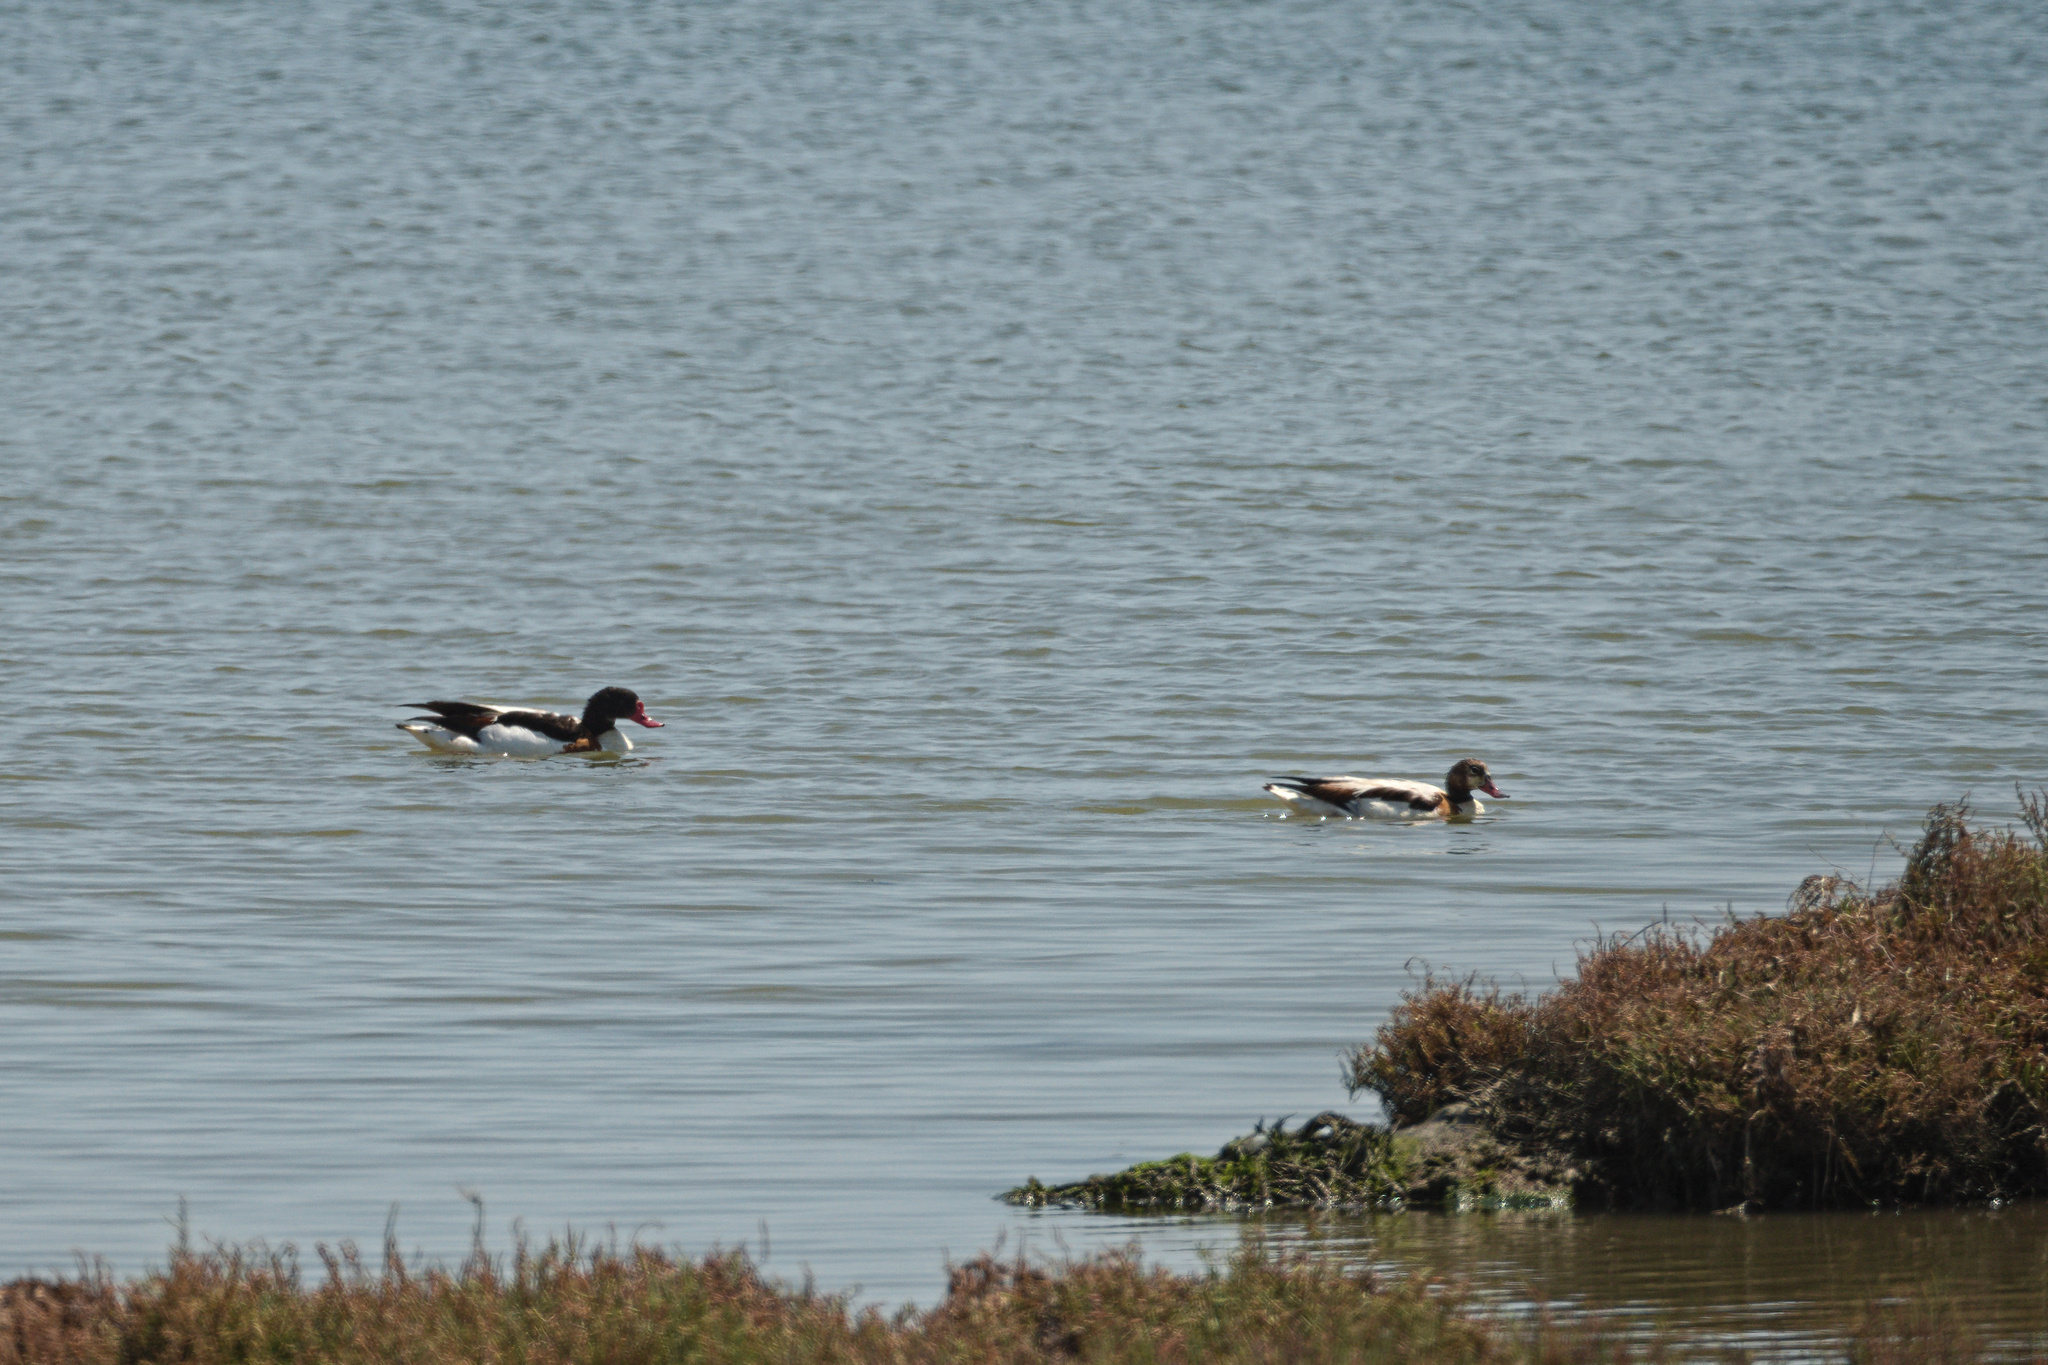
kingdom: Animalia
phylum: Chordata
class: Aves
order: Anseriformes
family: Anatidae
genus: Tadorna
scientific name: Tadorna tadorna
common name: Common shelduck
